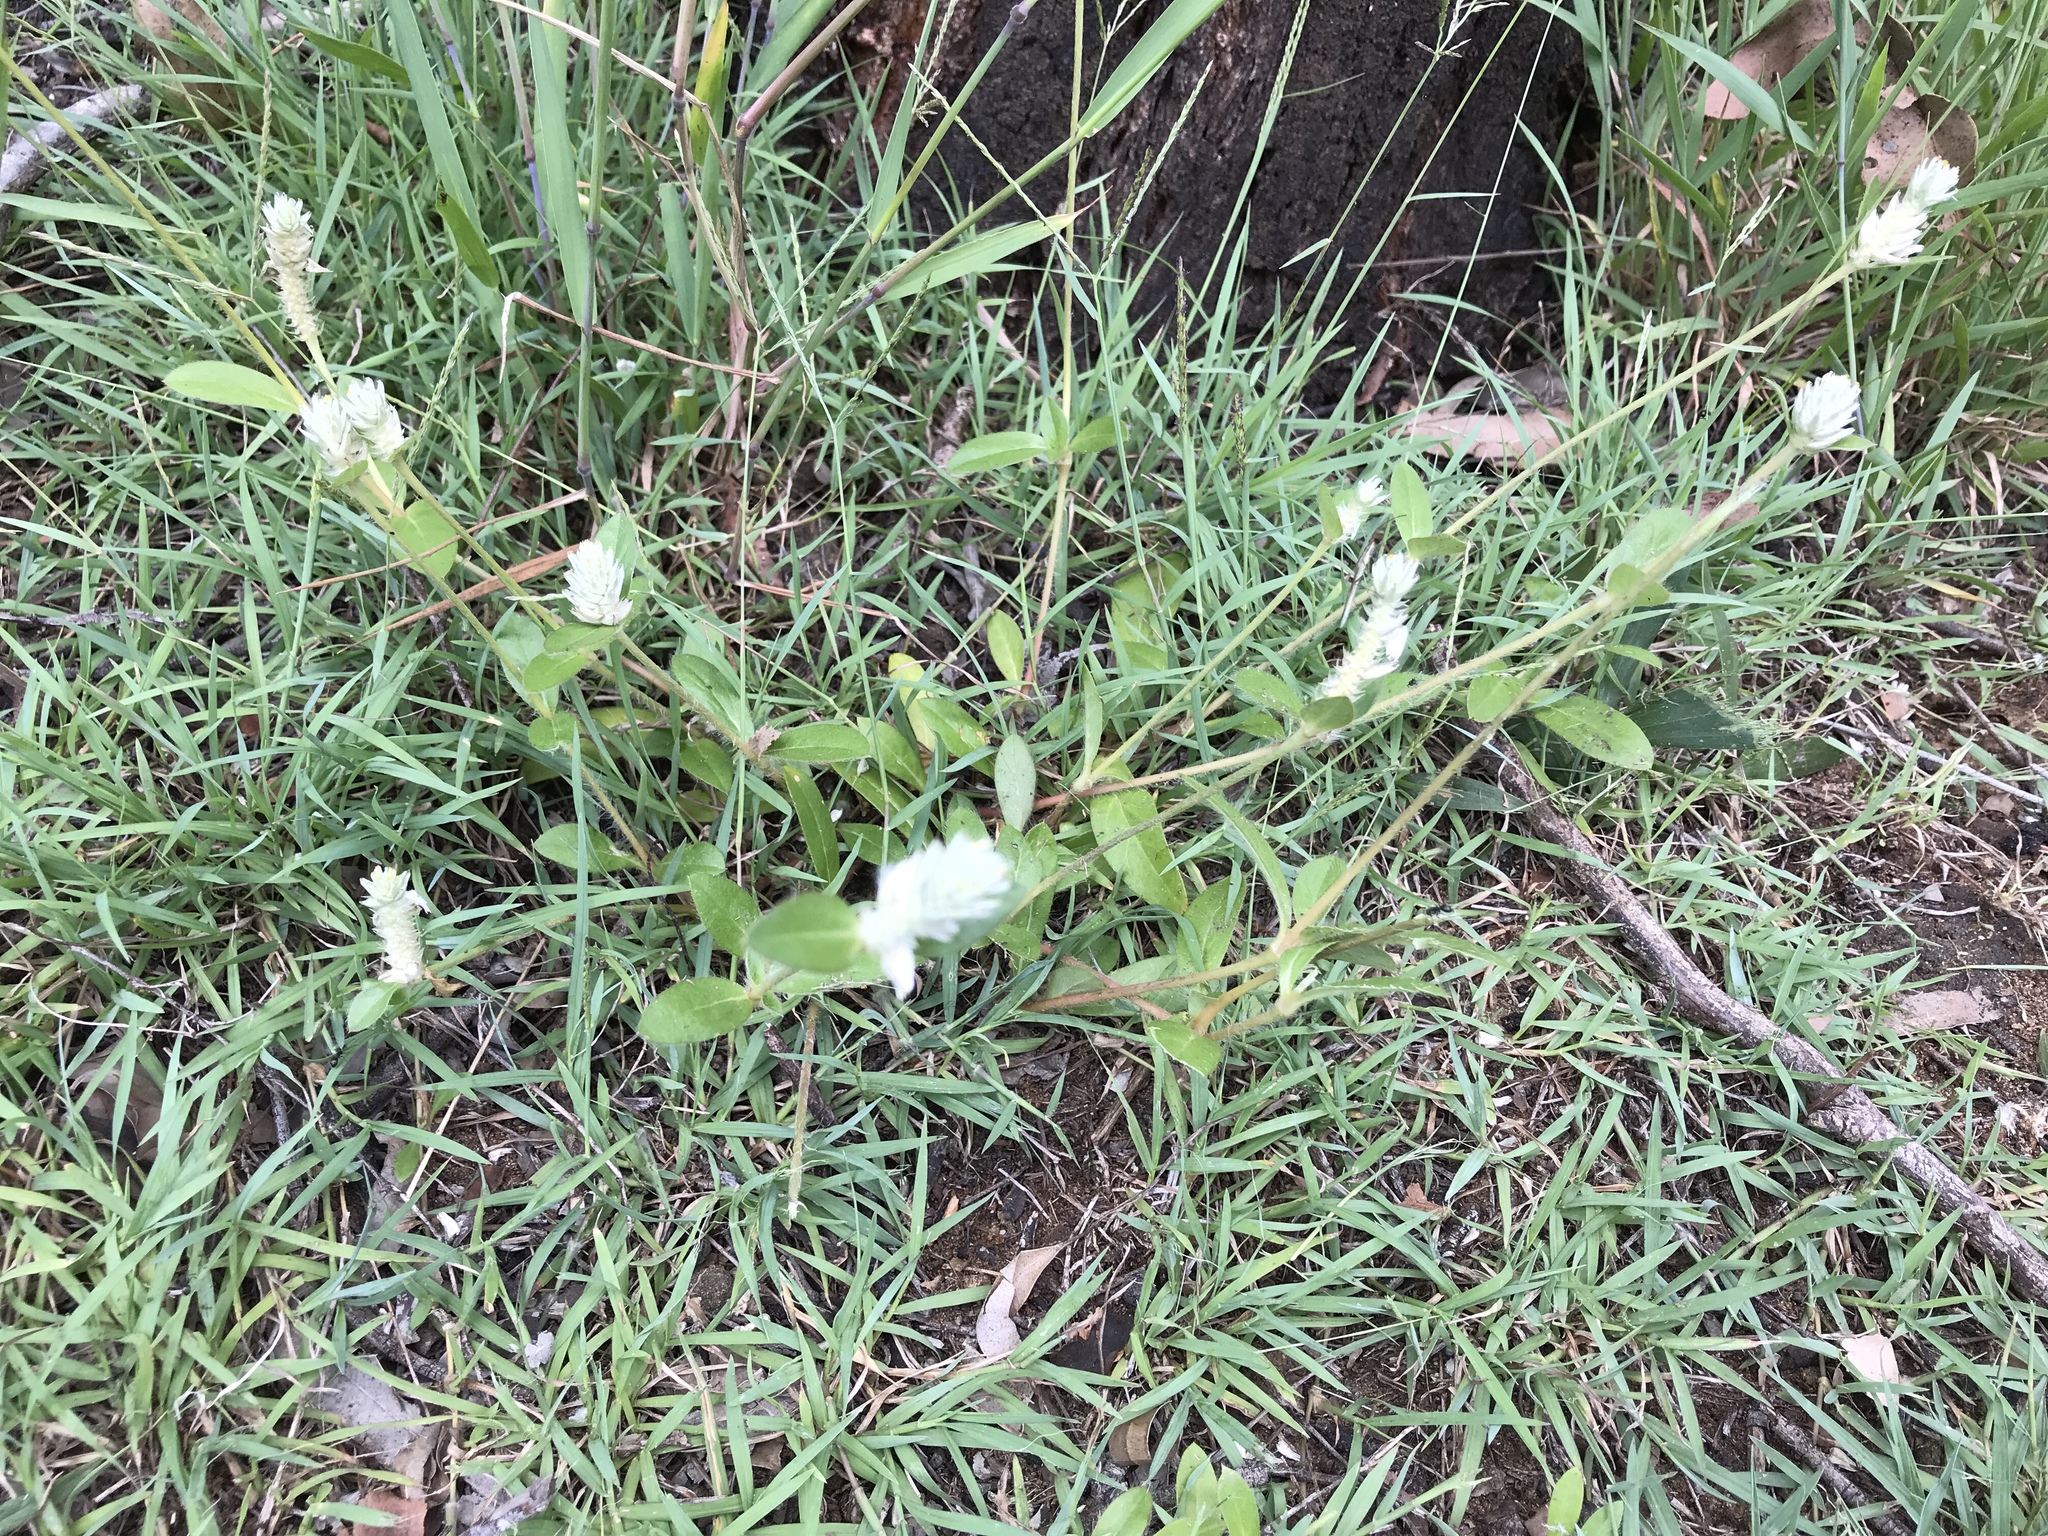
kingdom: Plantae
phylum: Tracheophyta
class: Magnoliopsida
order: Caryophyllales
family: Amaranthaceae
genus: Gomphrena
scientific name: Gomphrena celosioides
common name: Gomphrena-weed
